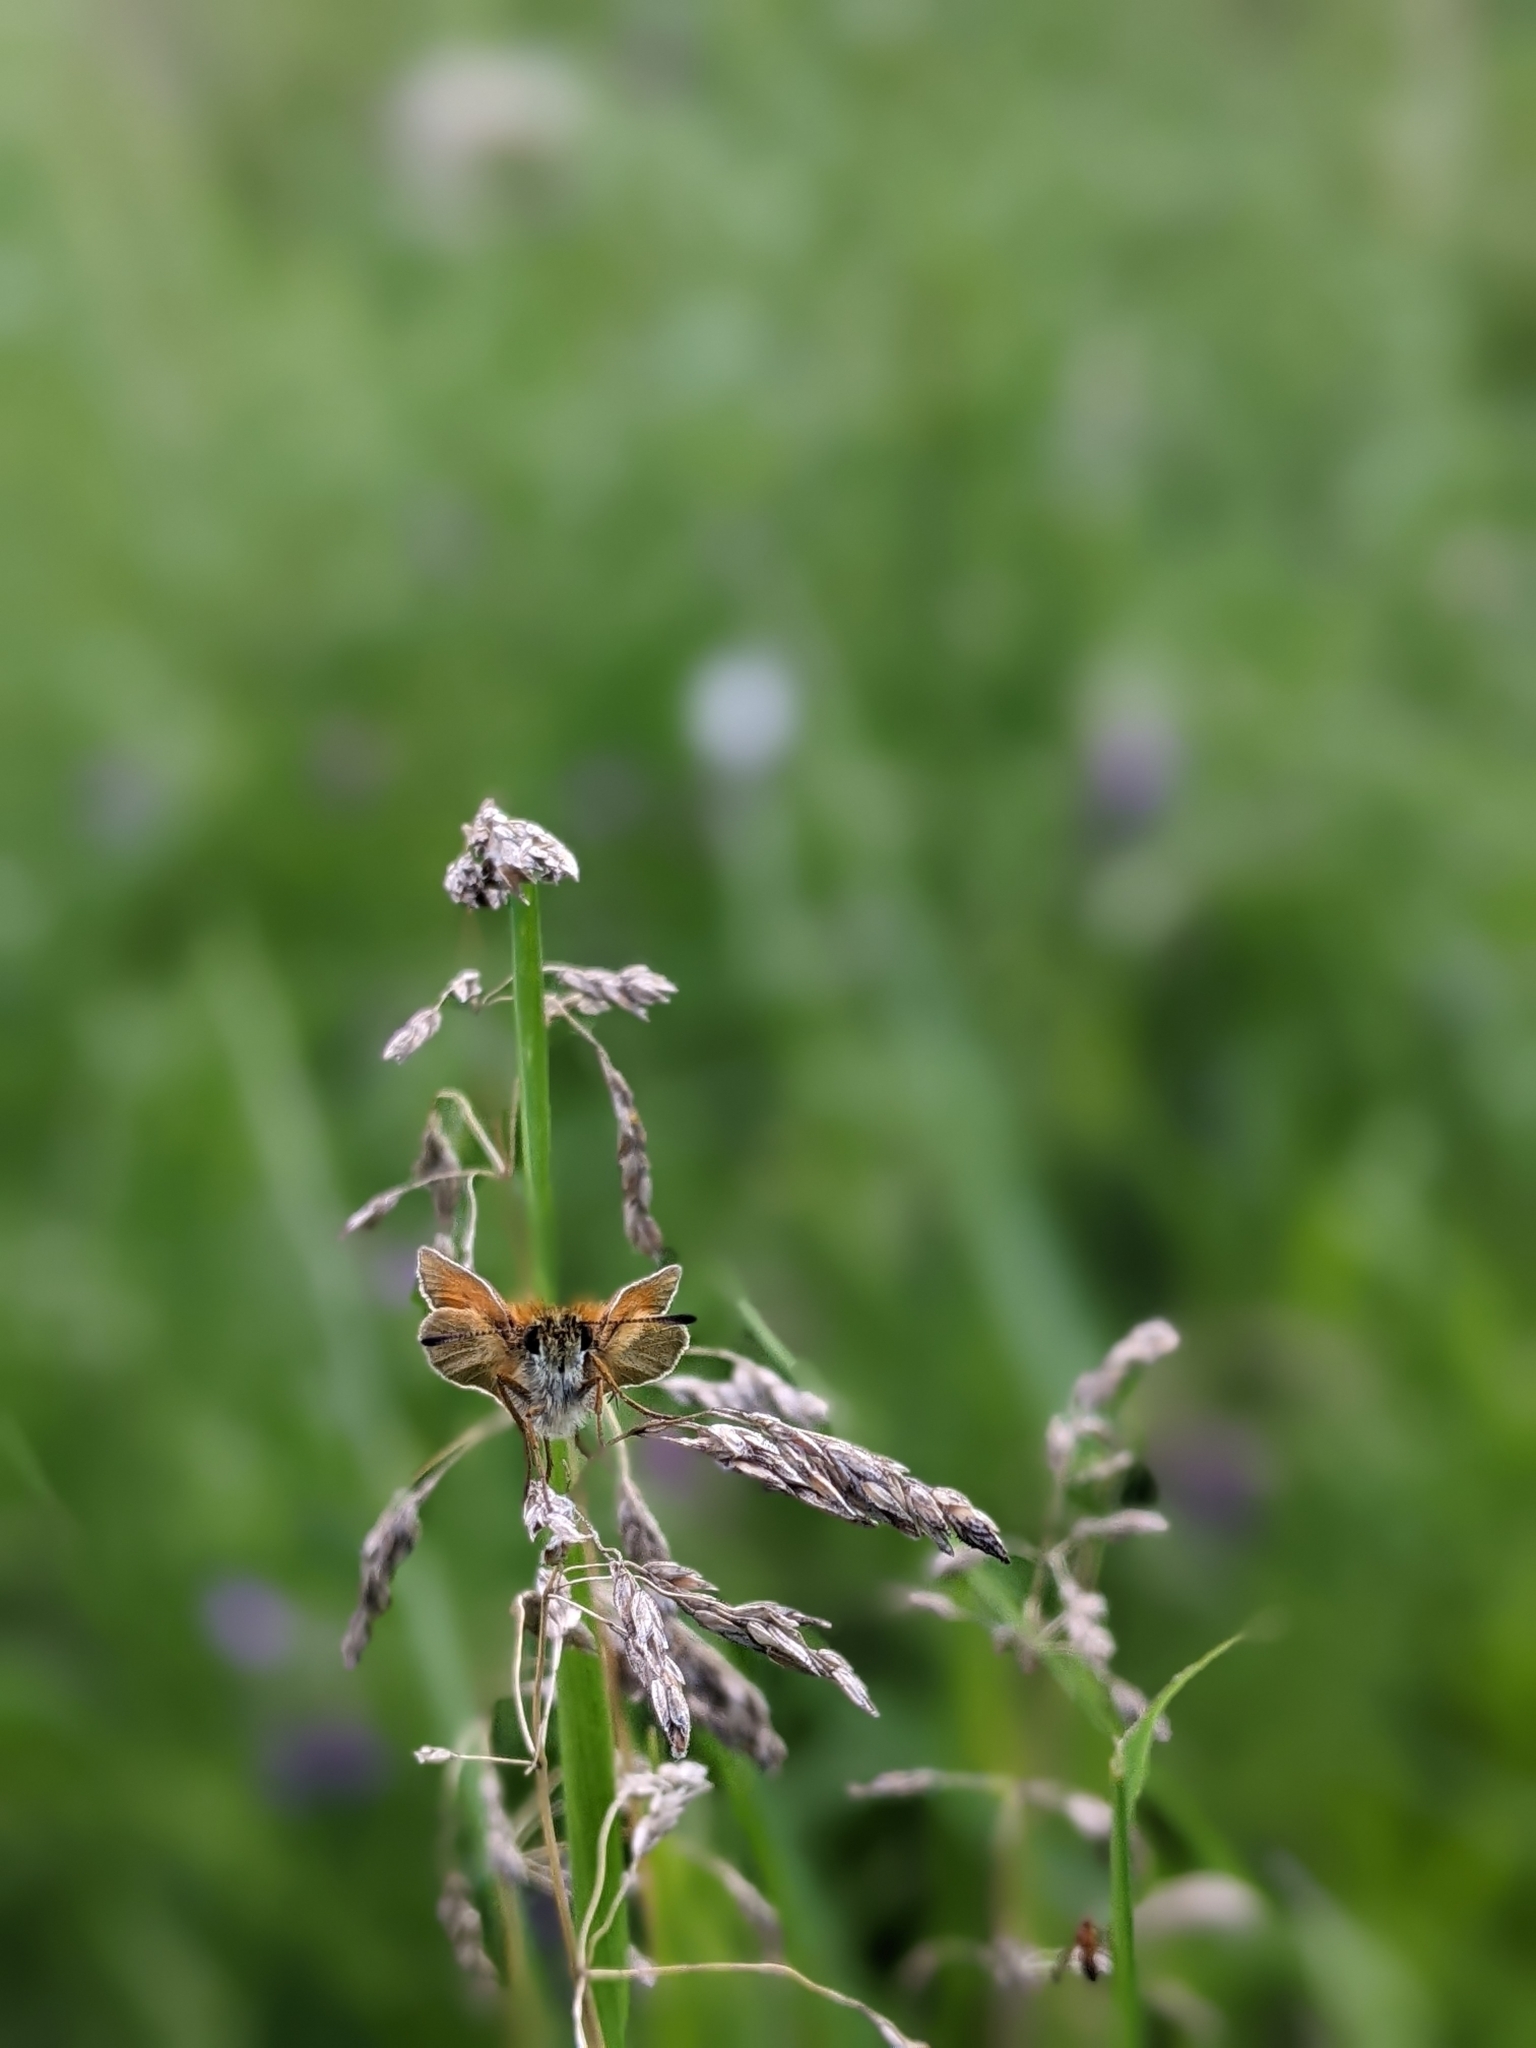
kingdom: Animalia
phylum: Arthropoda
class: Insecta
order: Lepidoptera
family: Hesperiidae
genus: Thymelicus
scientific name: Thymelicus lineola
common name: Essex skipper
